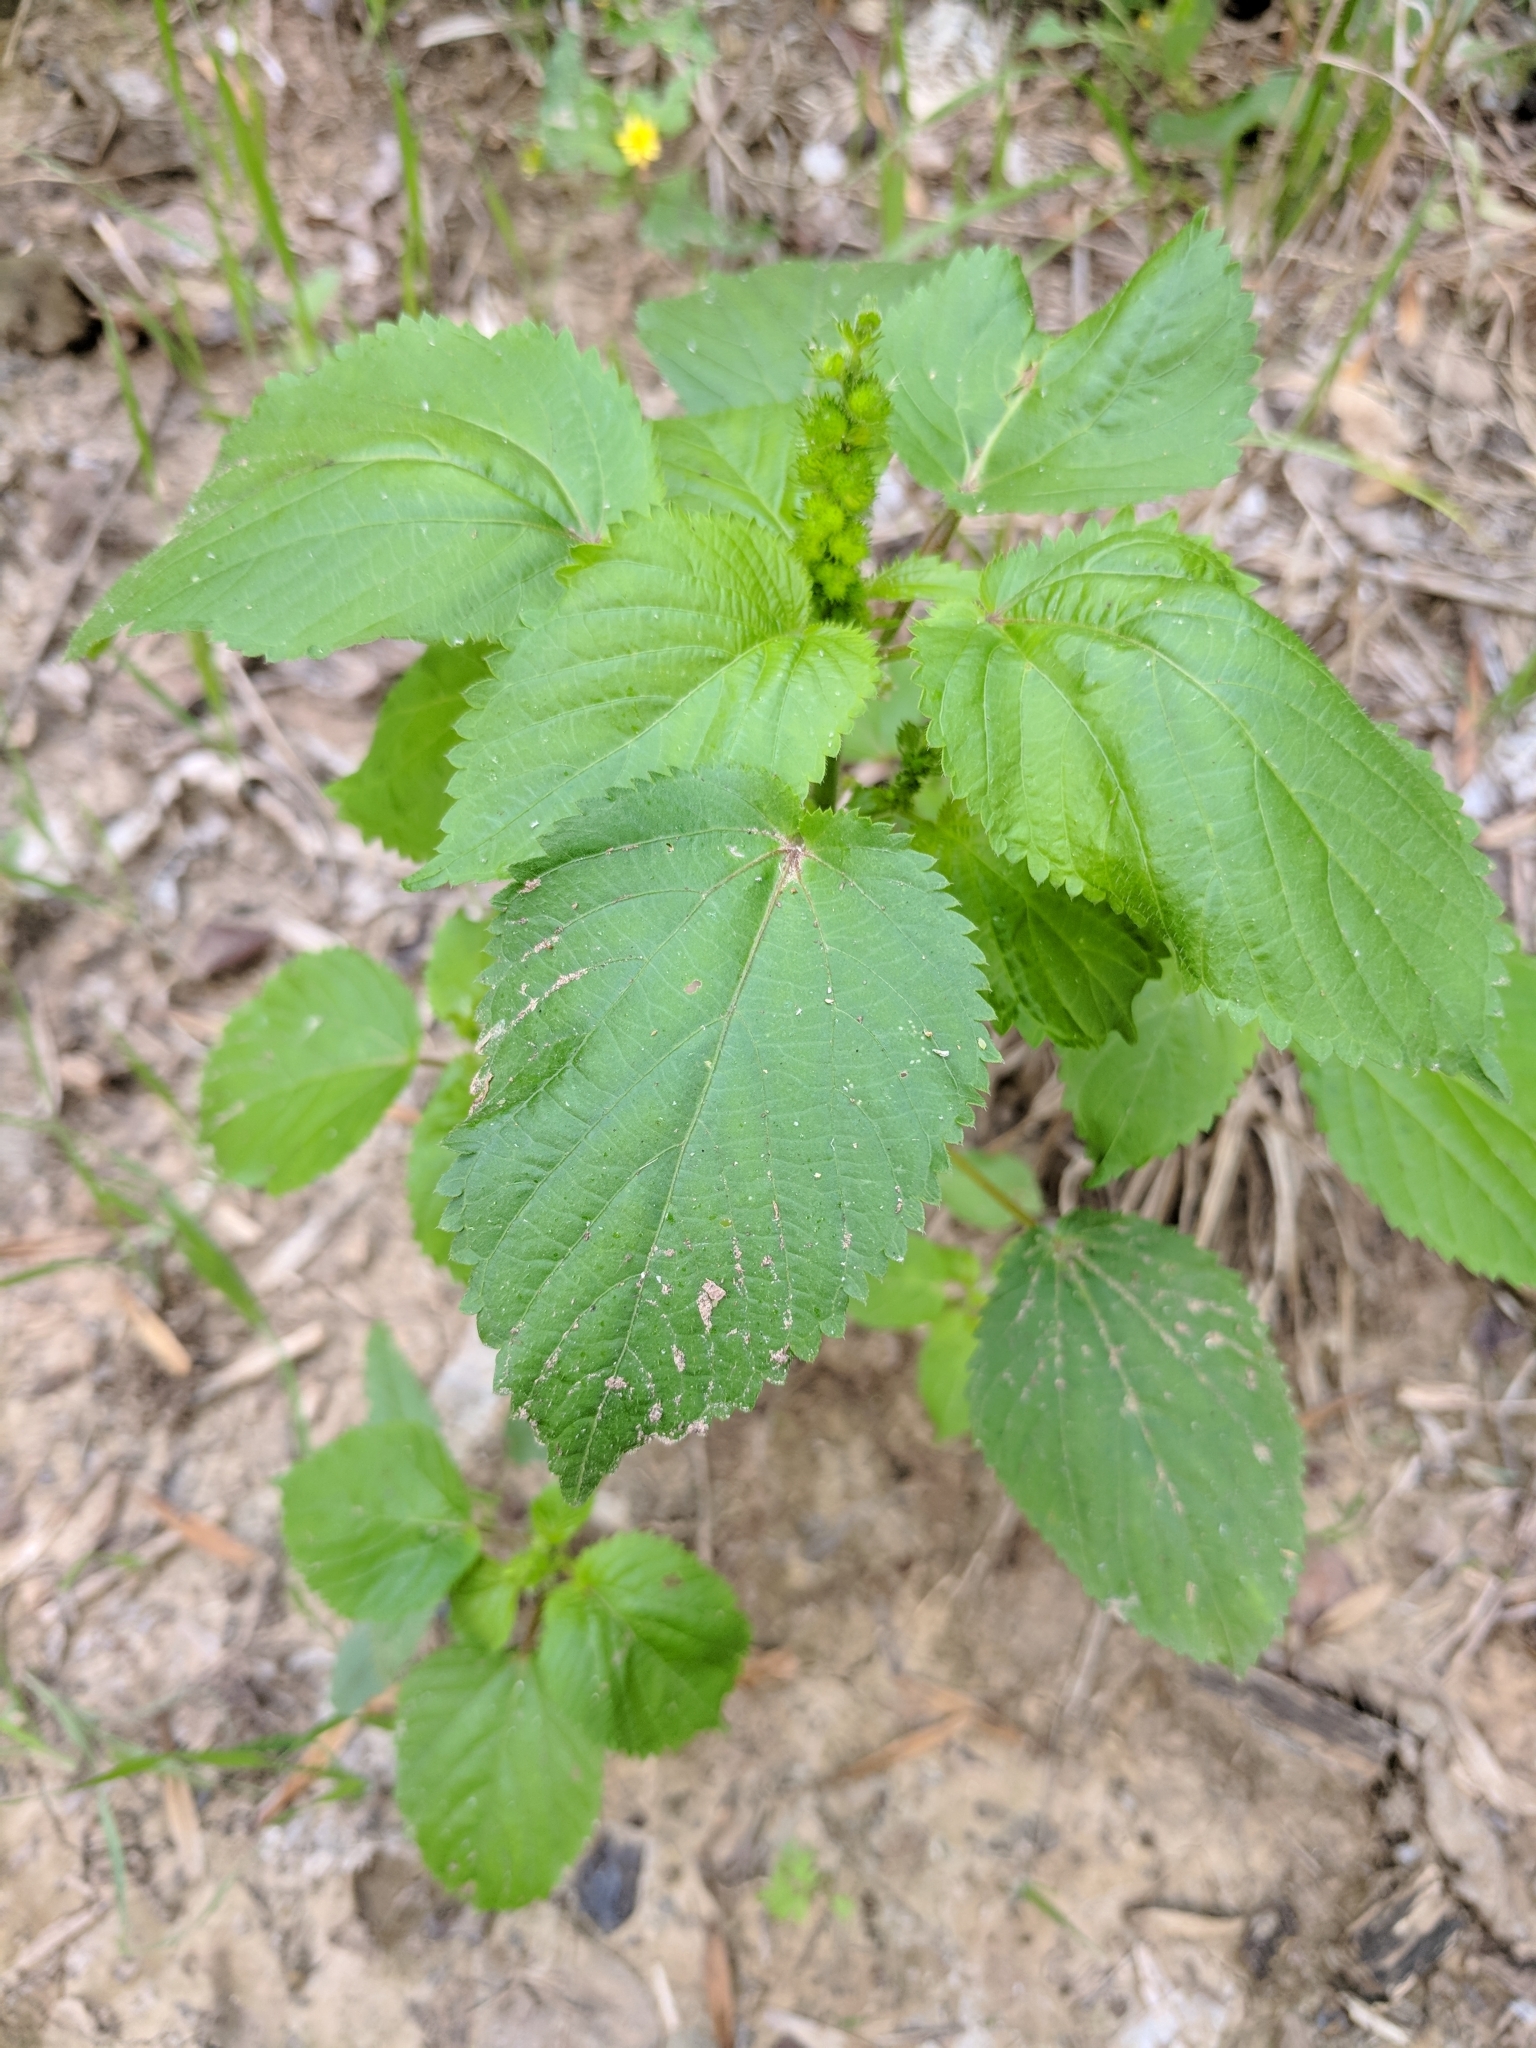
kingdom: Plantae
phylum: Tracheophyta
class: Magnoliopsida
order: Malpighiales
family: Euphorbiaceae
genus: Acalypha
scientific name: Acalypha ostryifolia
